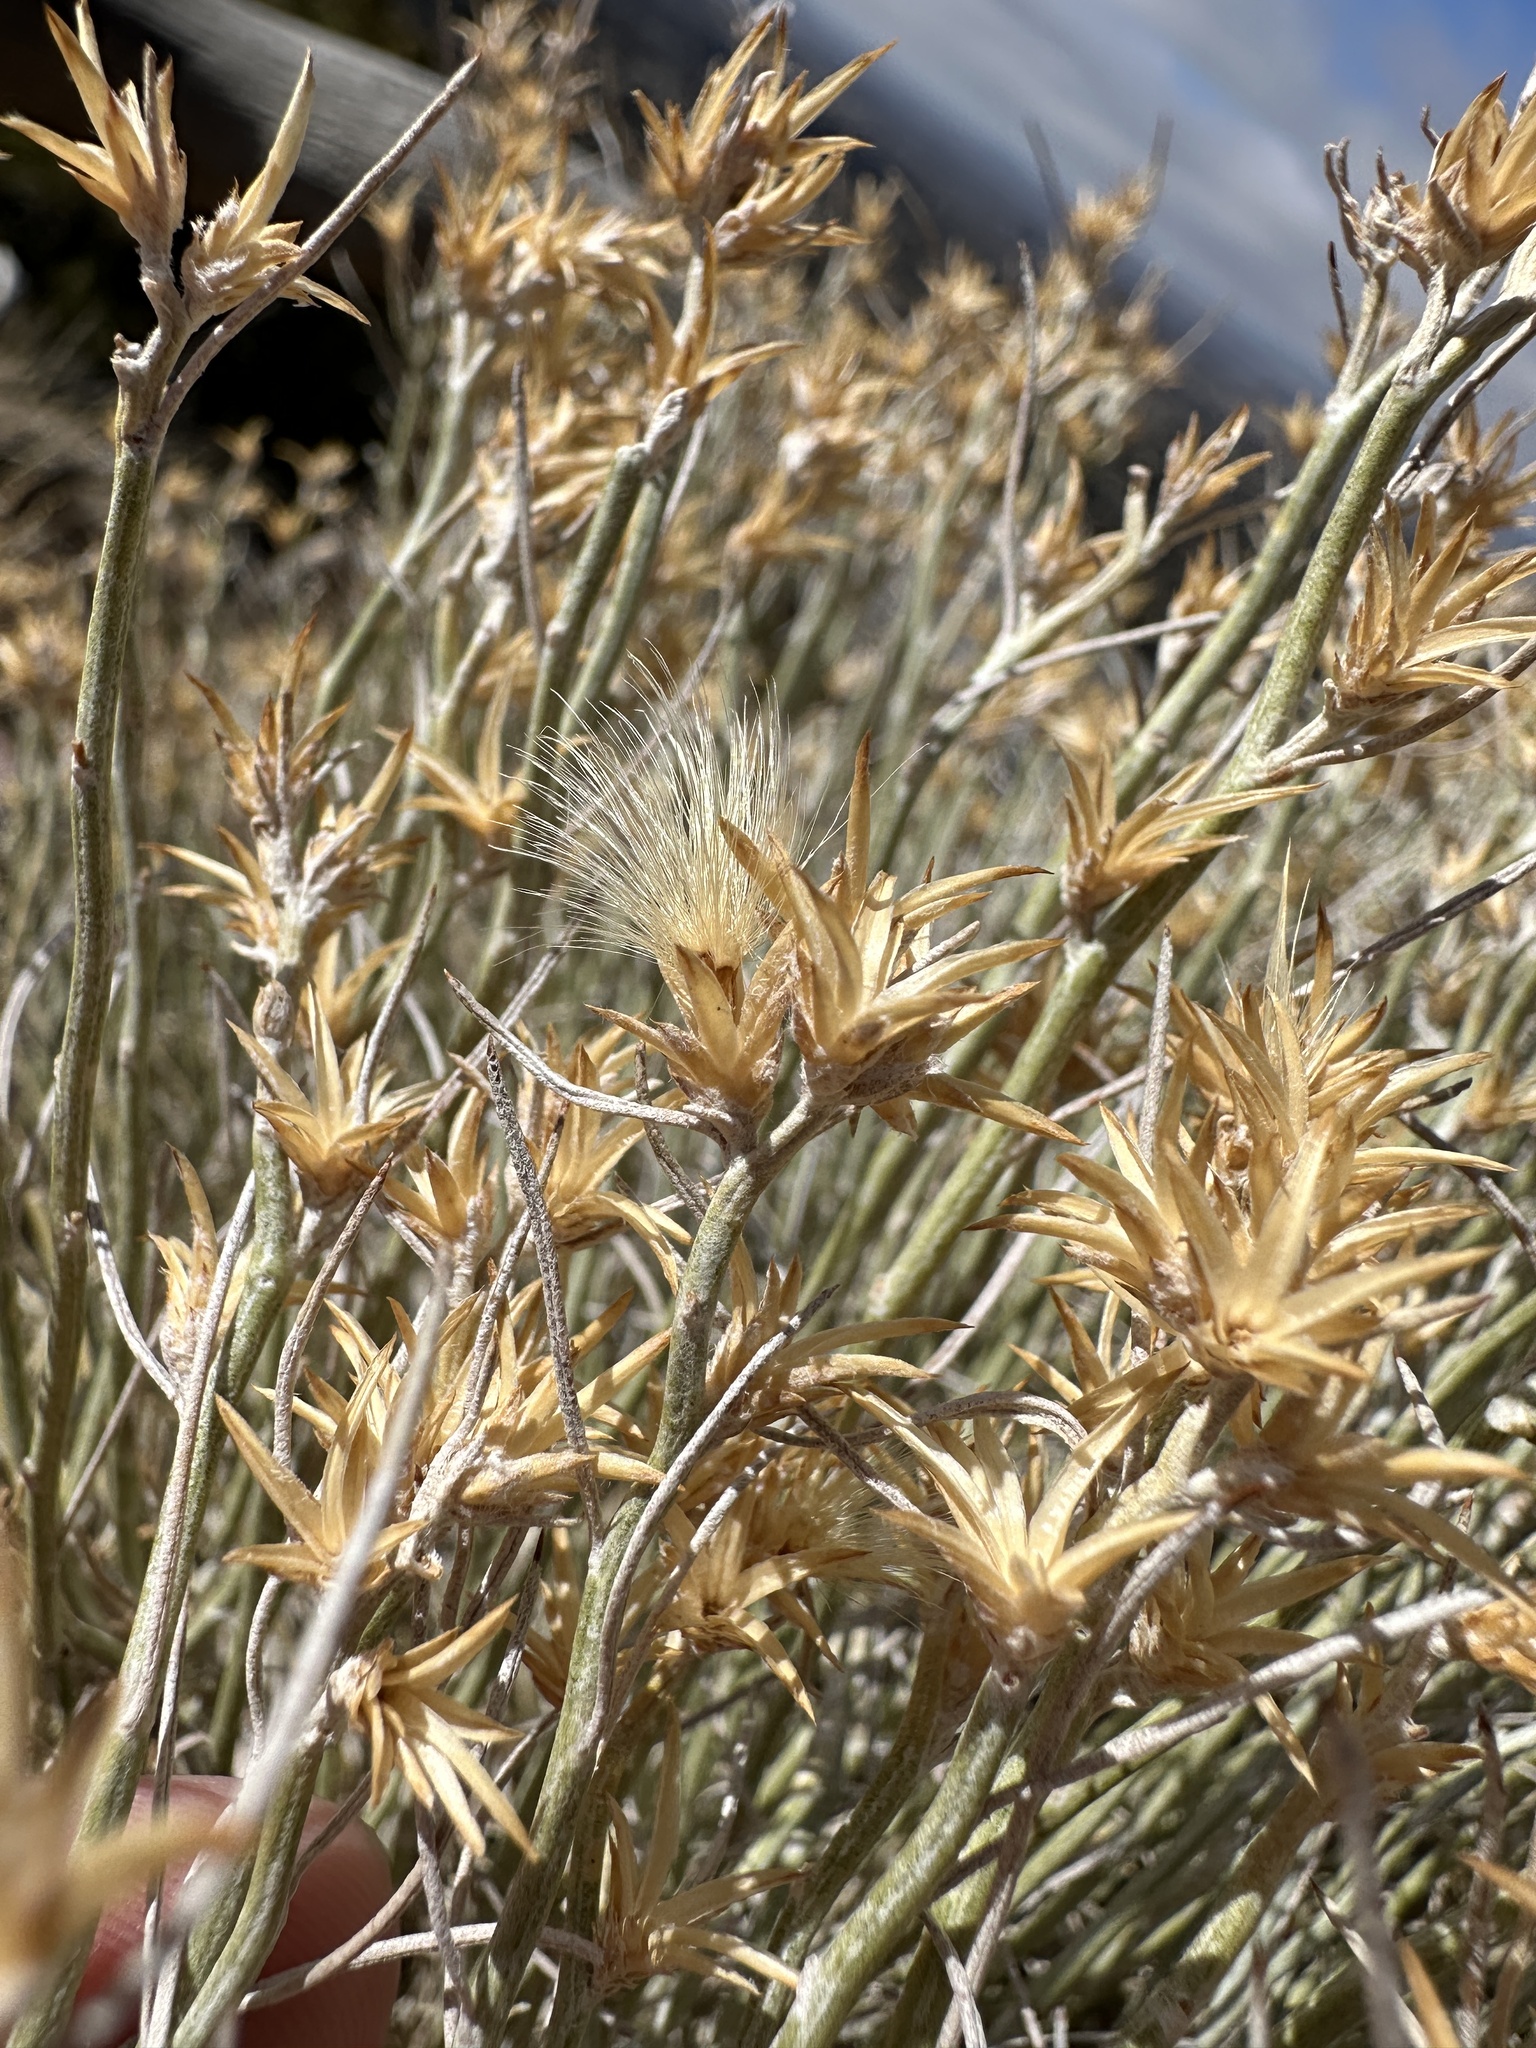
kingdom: Plantae
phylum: Tracheophyta
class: Magnoliopsida
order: Asterales
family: Asteraceae
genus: Ericameria
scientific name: Ericameria nauseosa
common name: Rubber rabbitbrush
